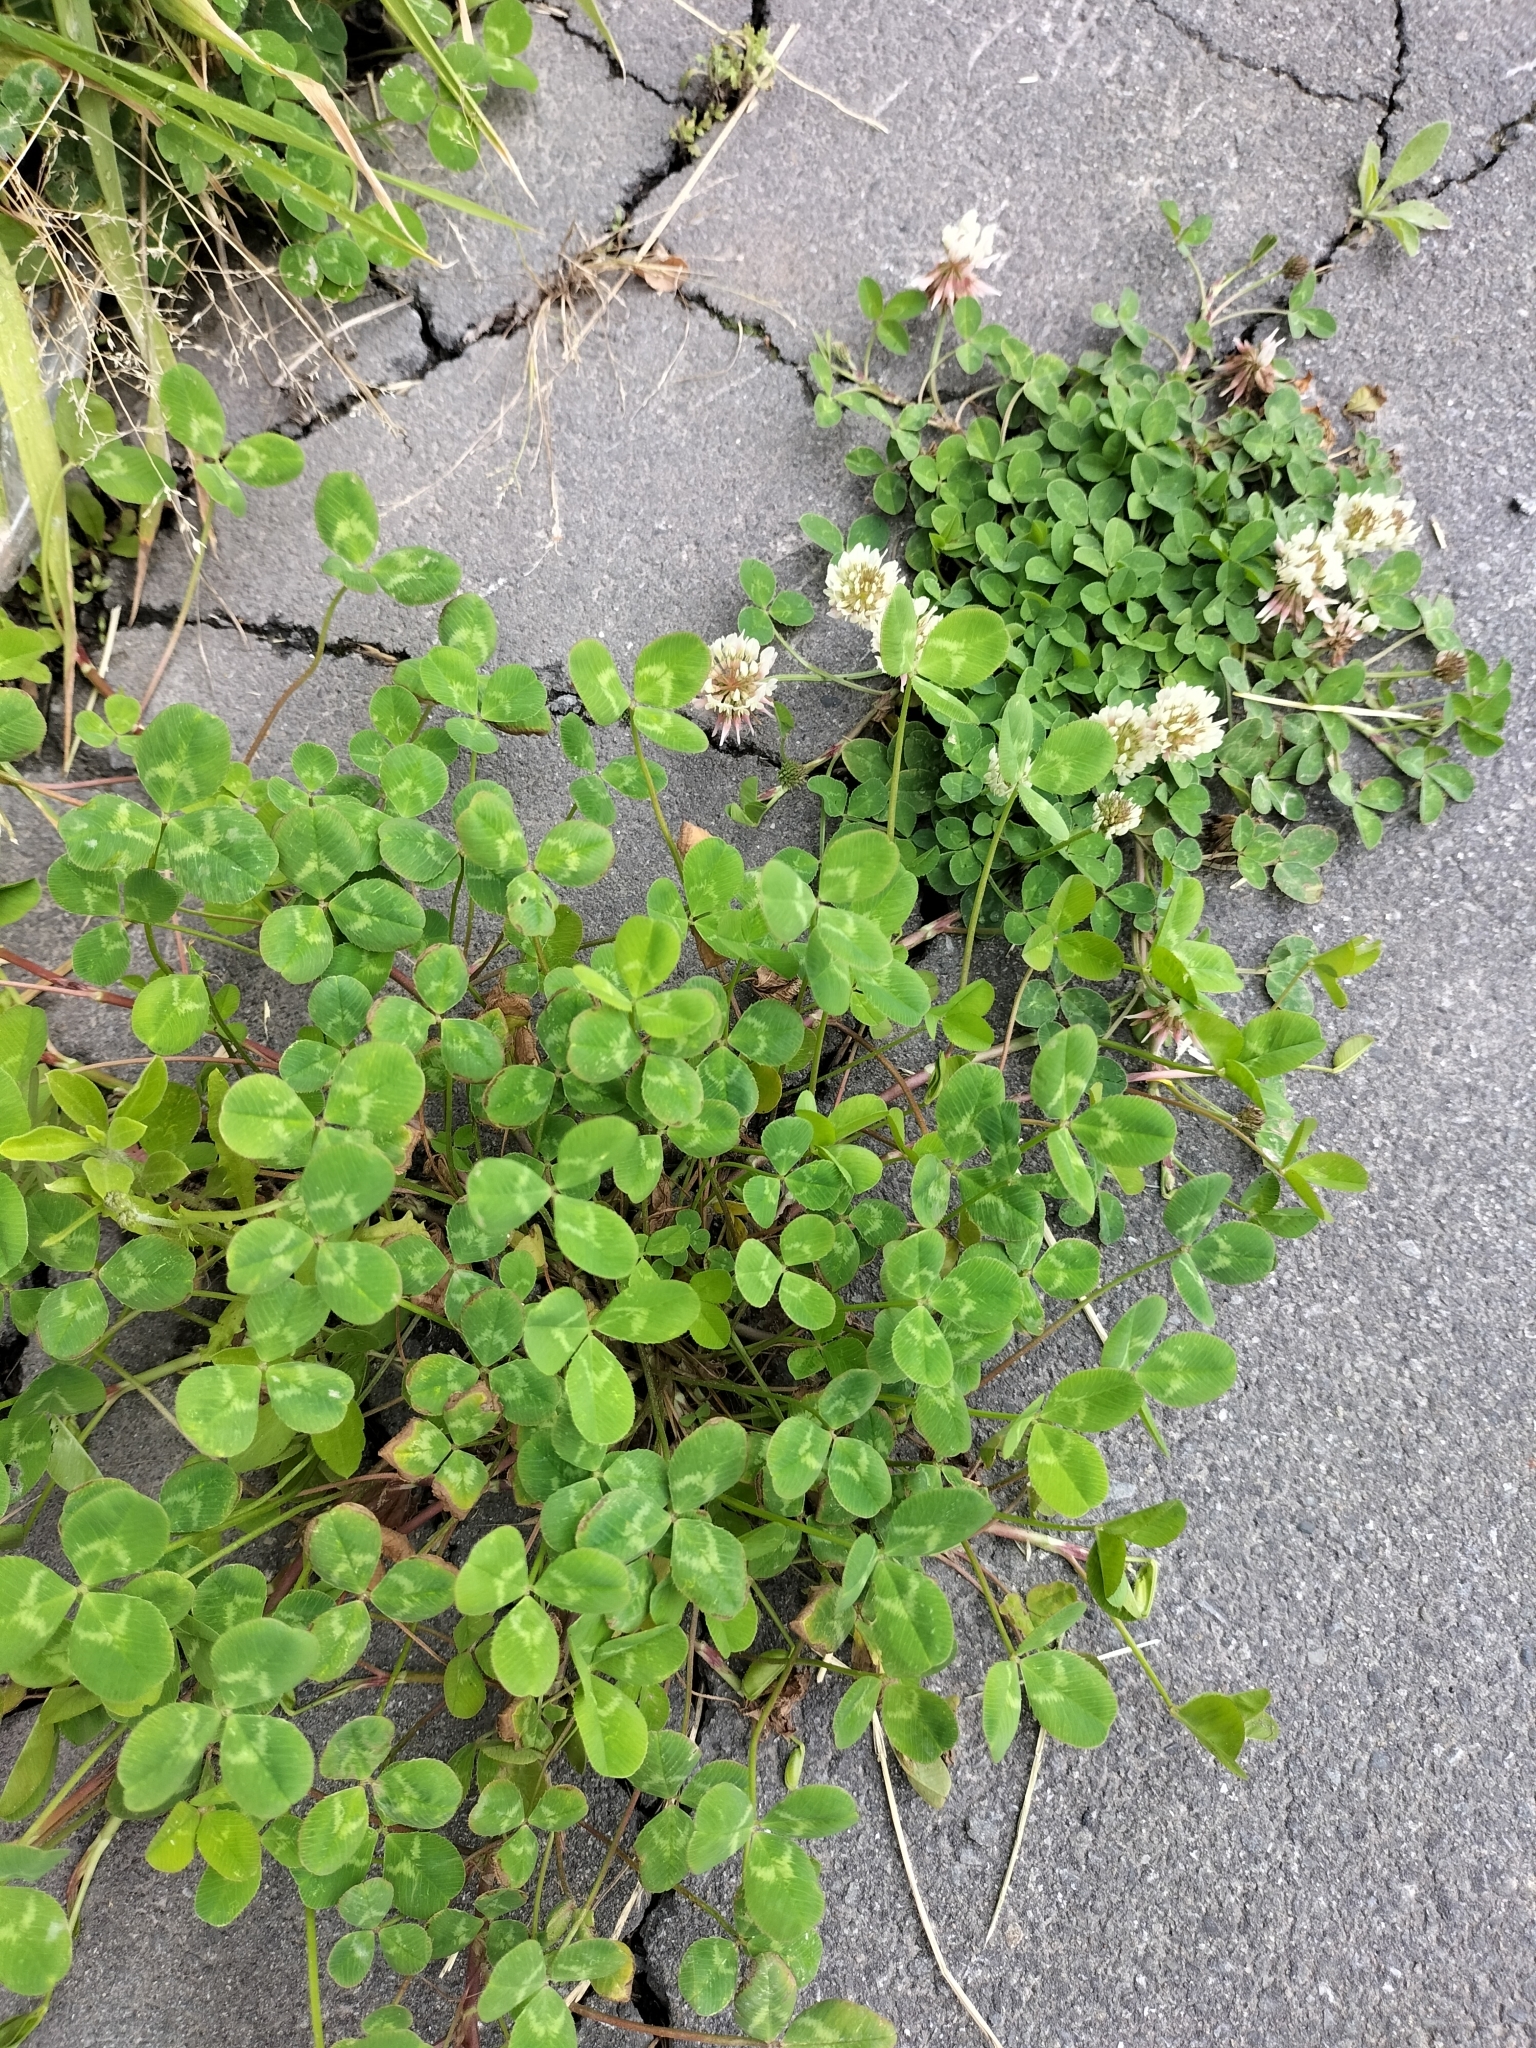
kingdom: Plantae
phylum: Tracheophyta
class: Magnoliopsida
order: Fabales
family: Fabaceae
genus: Trifolium
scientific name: Trifolium repens
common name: White clover
